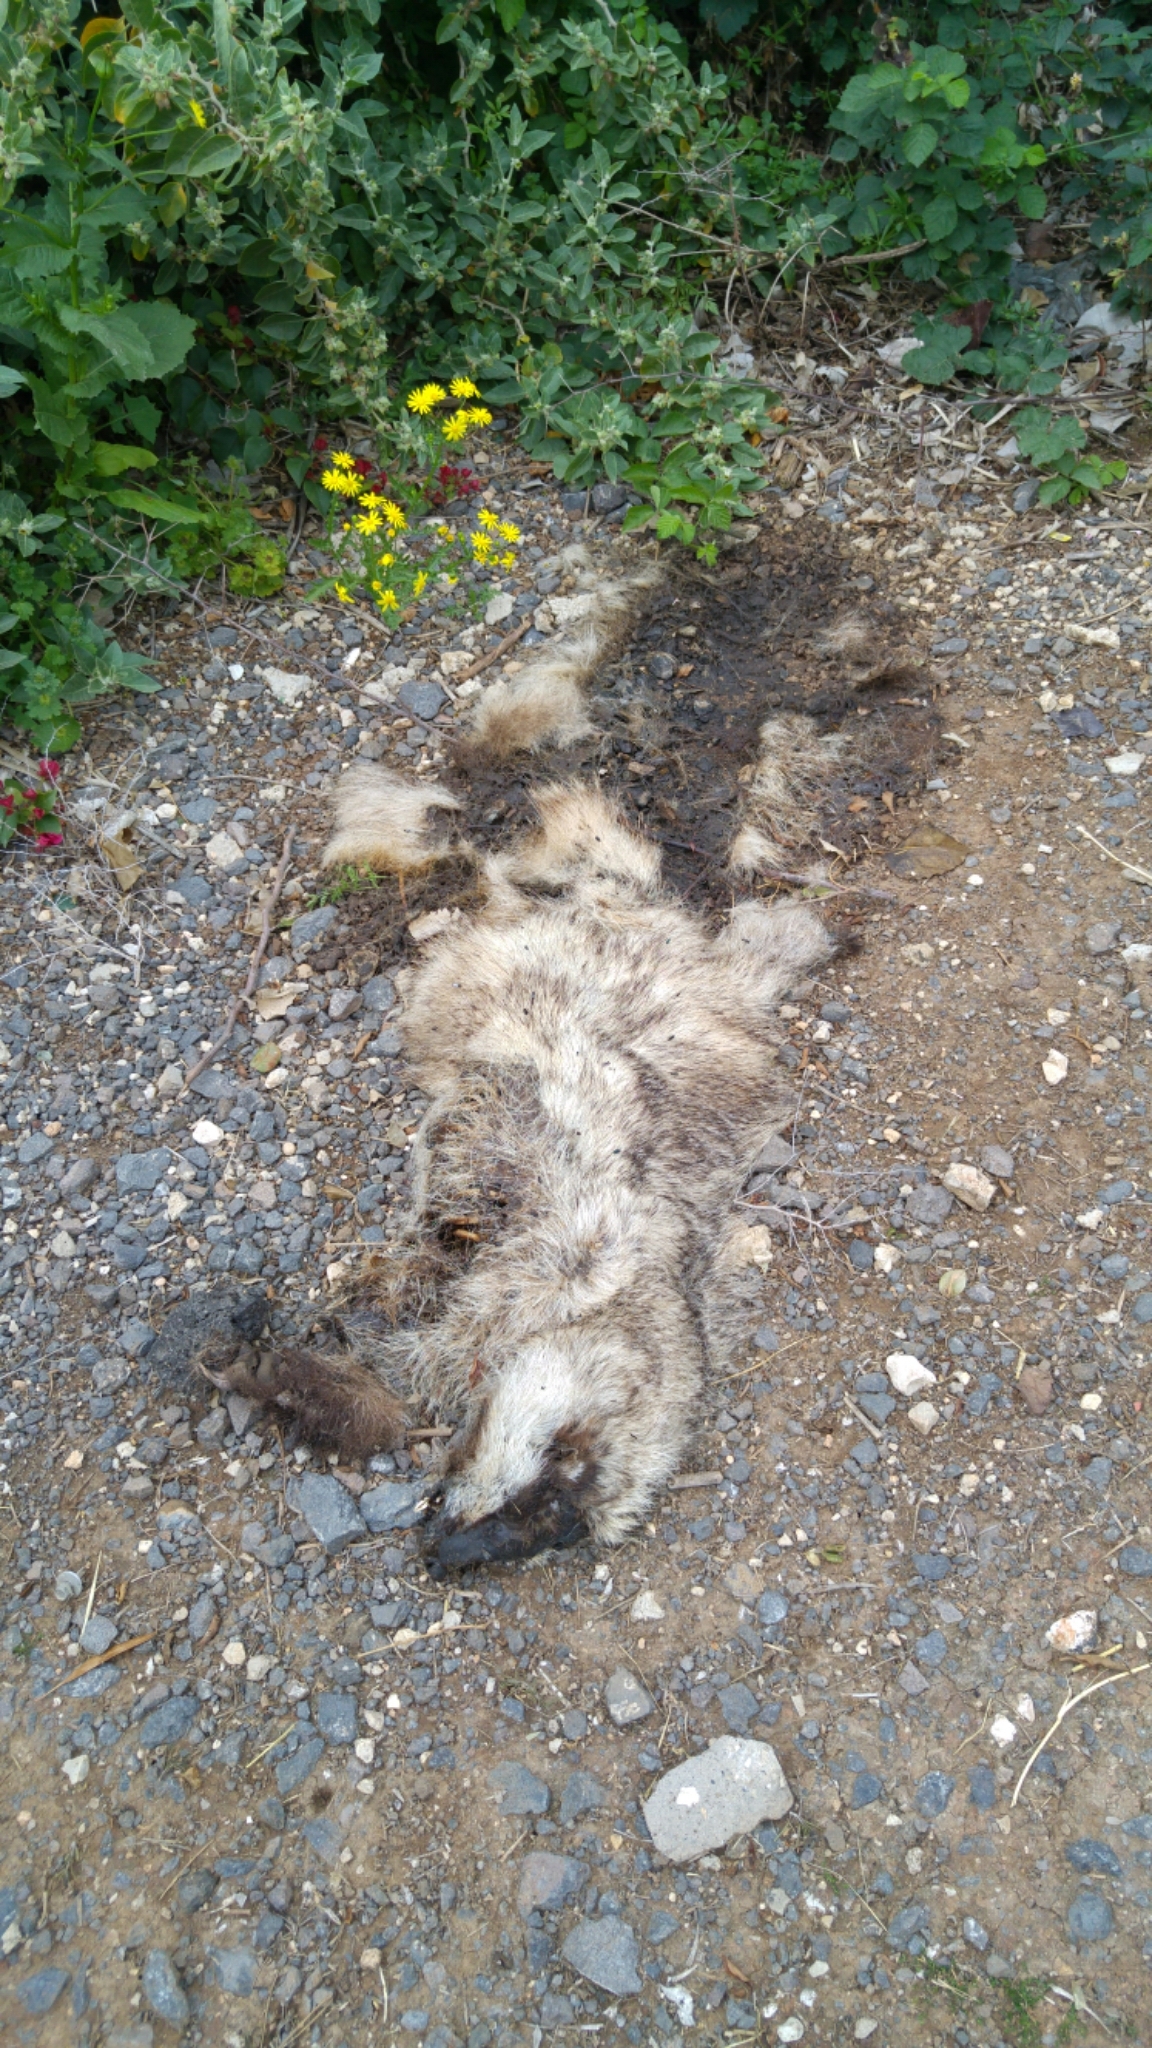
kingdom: Animalia
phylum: Chordata
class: Mammalia
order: Carnivora
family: Mustelidae
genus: Meles
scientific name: Meles canescens
